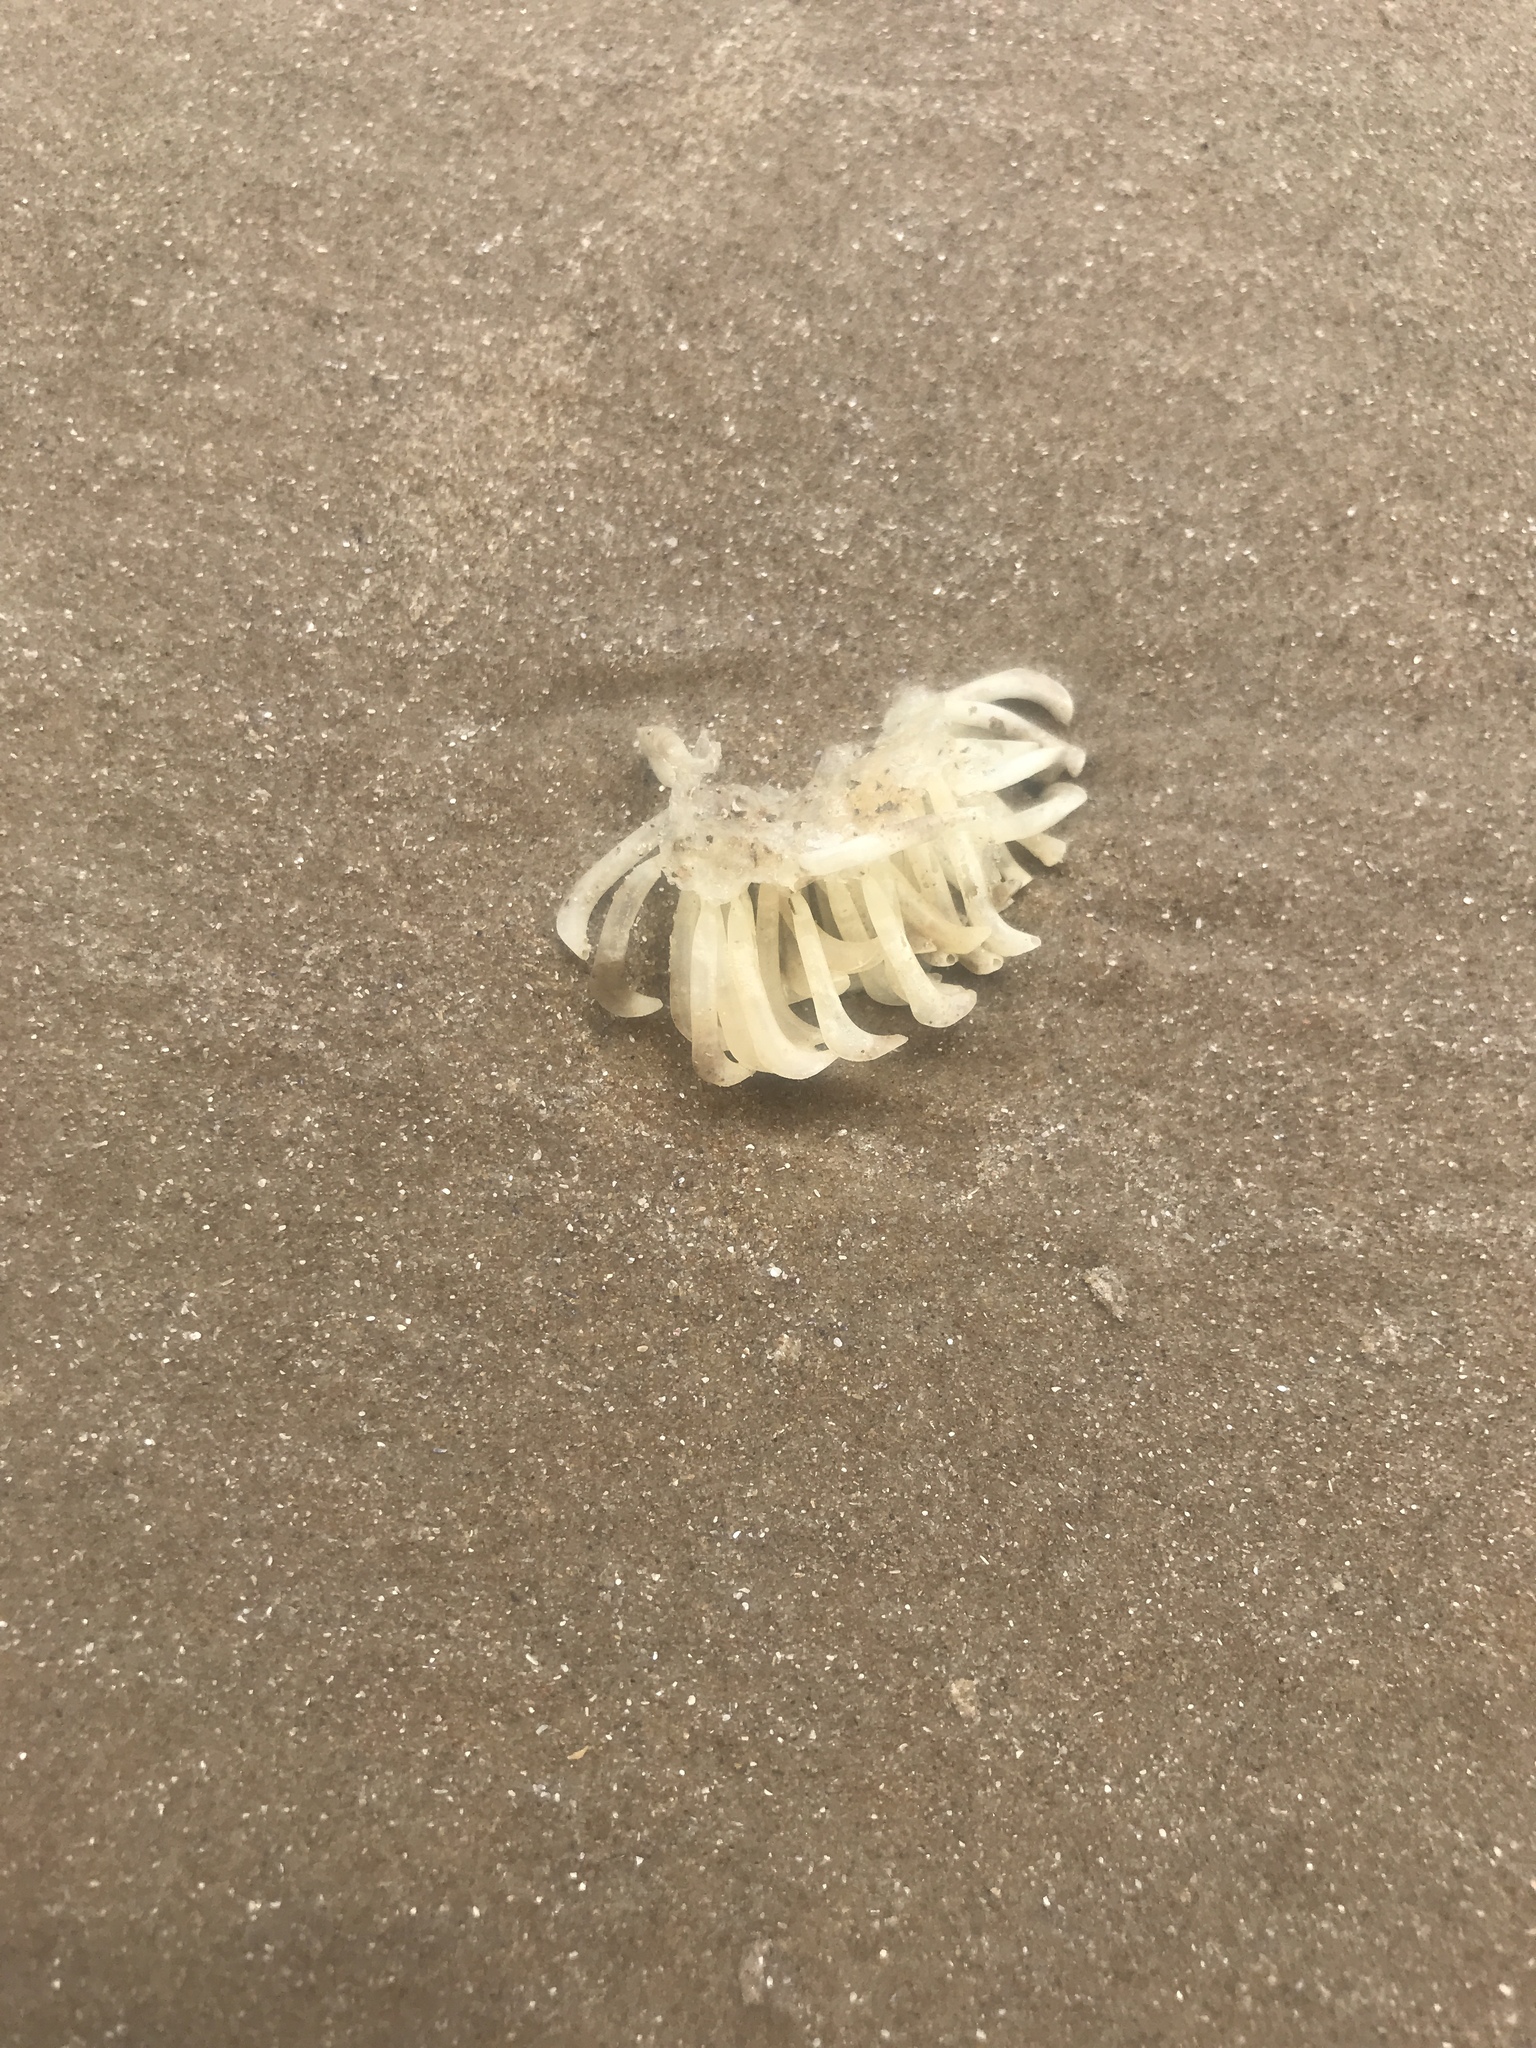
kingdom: Animalia
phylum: Mollusca
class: Gastropoda
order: Neogastropoda
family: Muricidae
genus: Rapana
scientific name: Rapana venosa
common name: Veined rapa whelk
